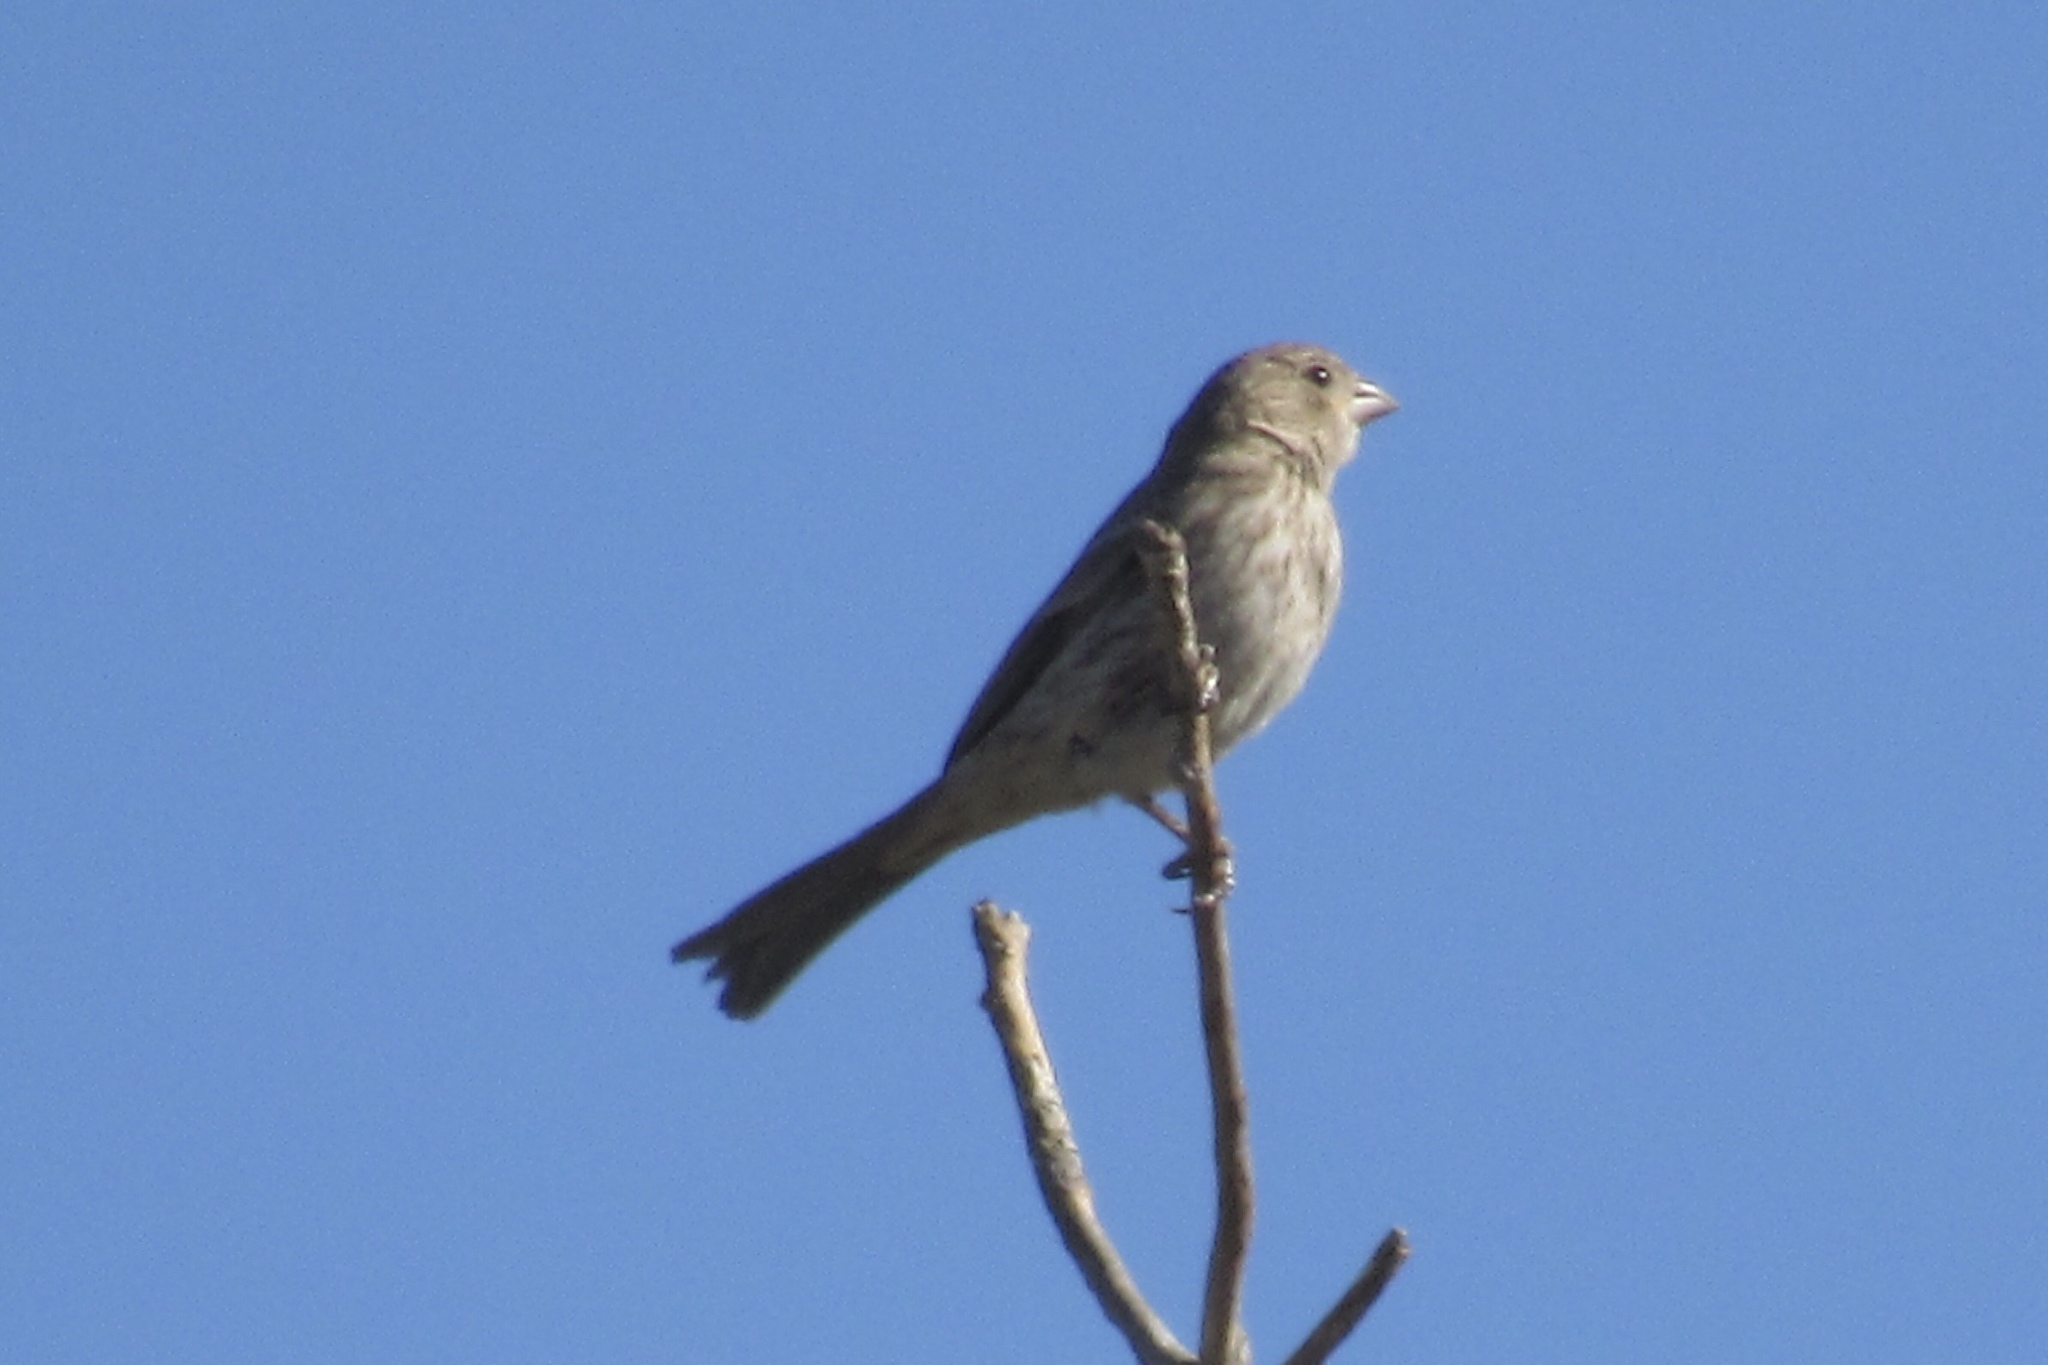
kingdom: Animalia
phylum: Chordata
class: Aves
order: Passeriformes
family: Fringillidae
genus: Haemorhous
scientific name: Haemorhous mexicanus
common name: House finch
